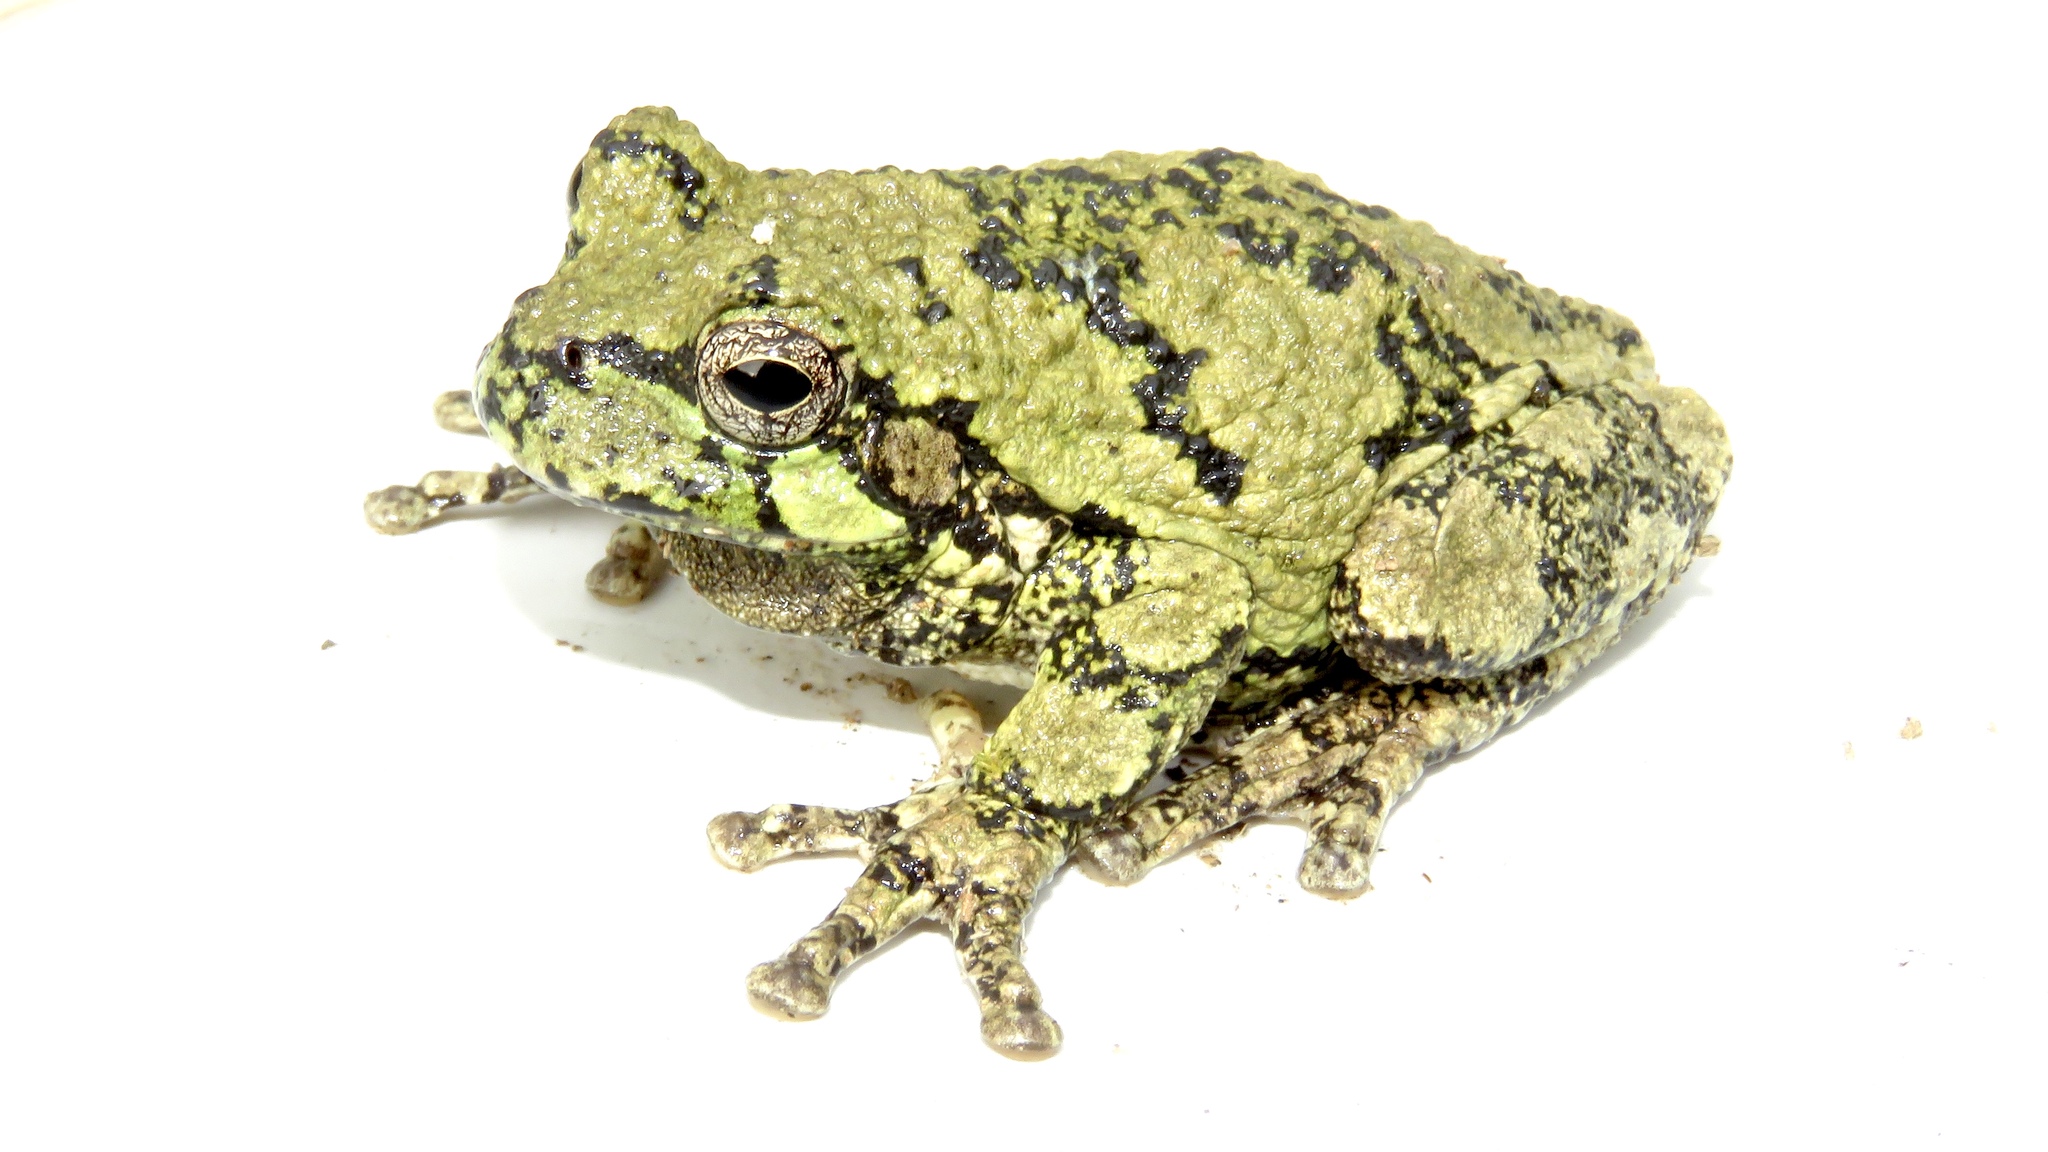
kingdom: Animalia
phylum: Chordata
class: Amphibia
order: Anura
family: Hylidae
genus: Dryophytes
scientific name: Dryophytes versicolor
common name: Gray treefrog
